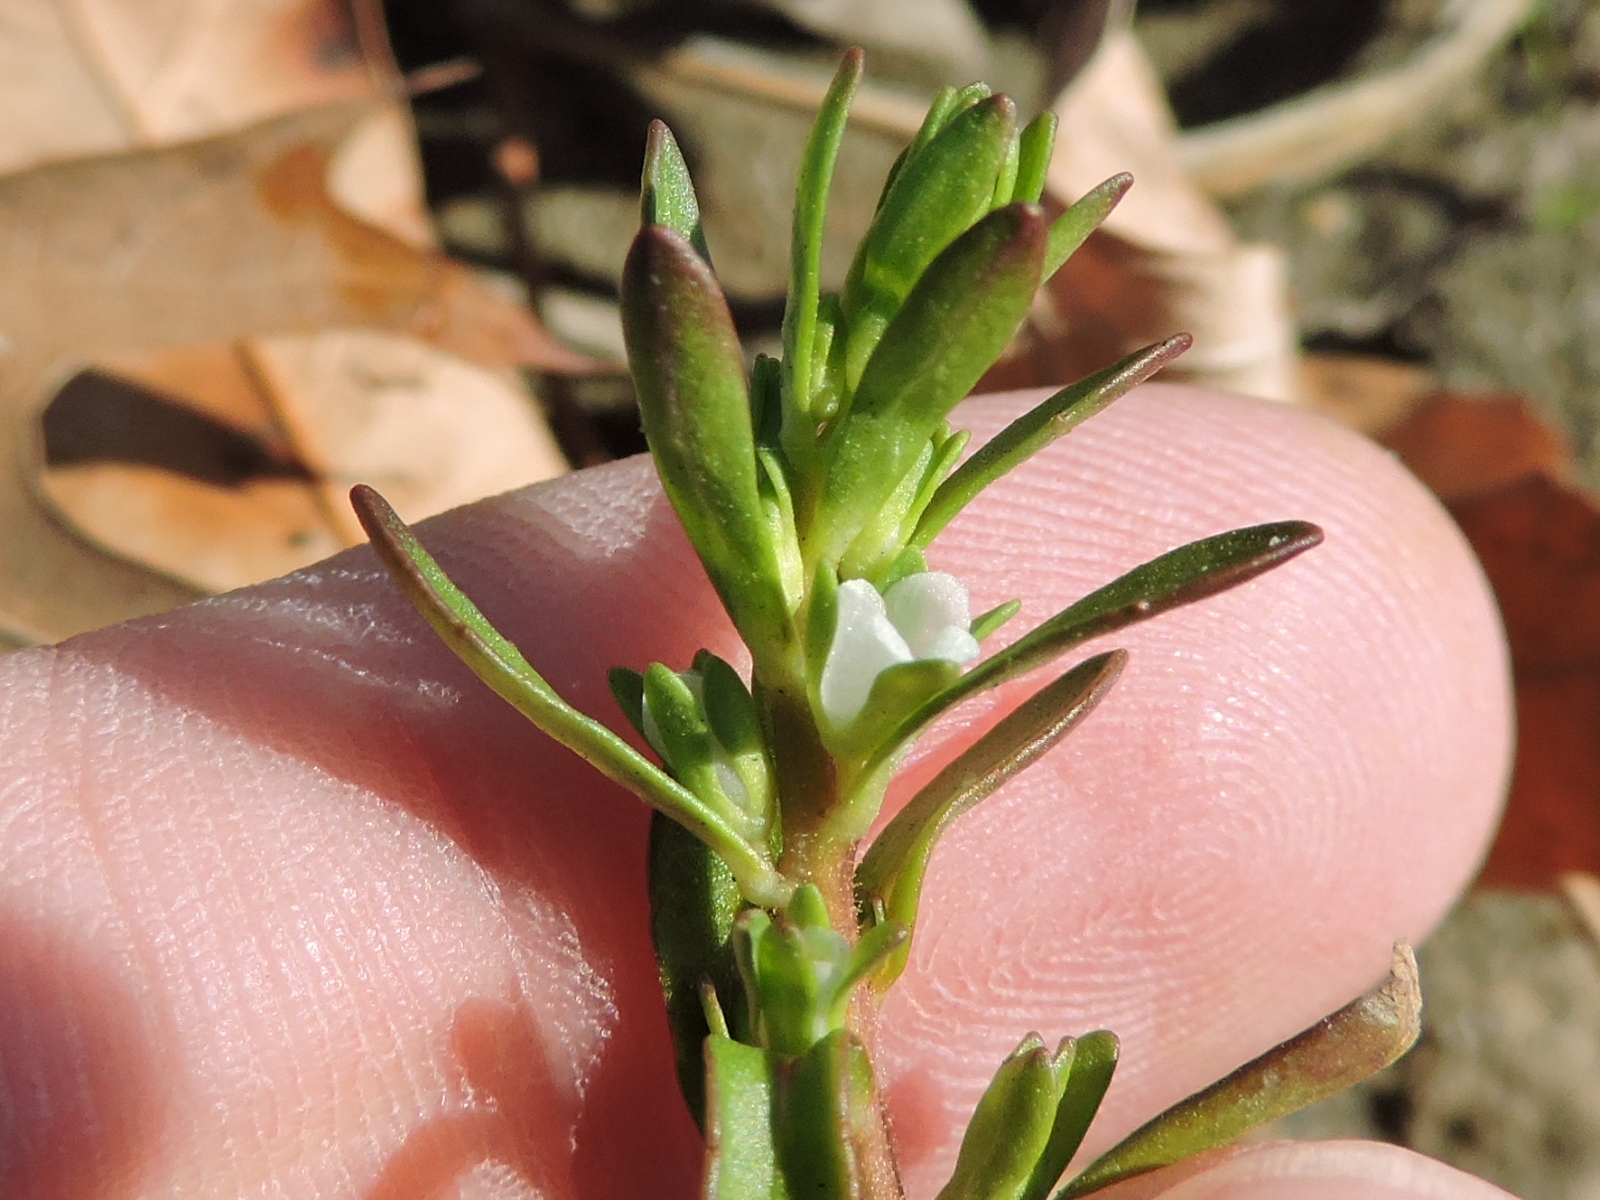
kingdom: Plantae
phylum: Tracheophyta
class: Magnoliopsida
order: Lamiales
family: Plantaginaceae
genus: Veronica
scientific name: Veronica peregrina
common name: Neckweed
